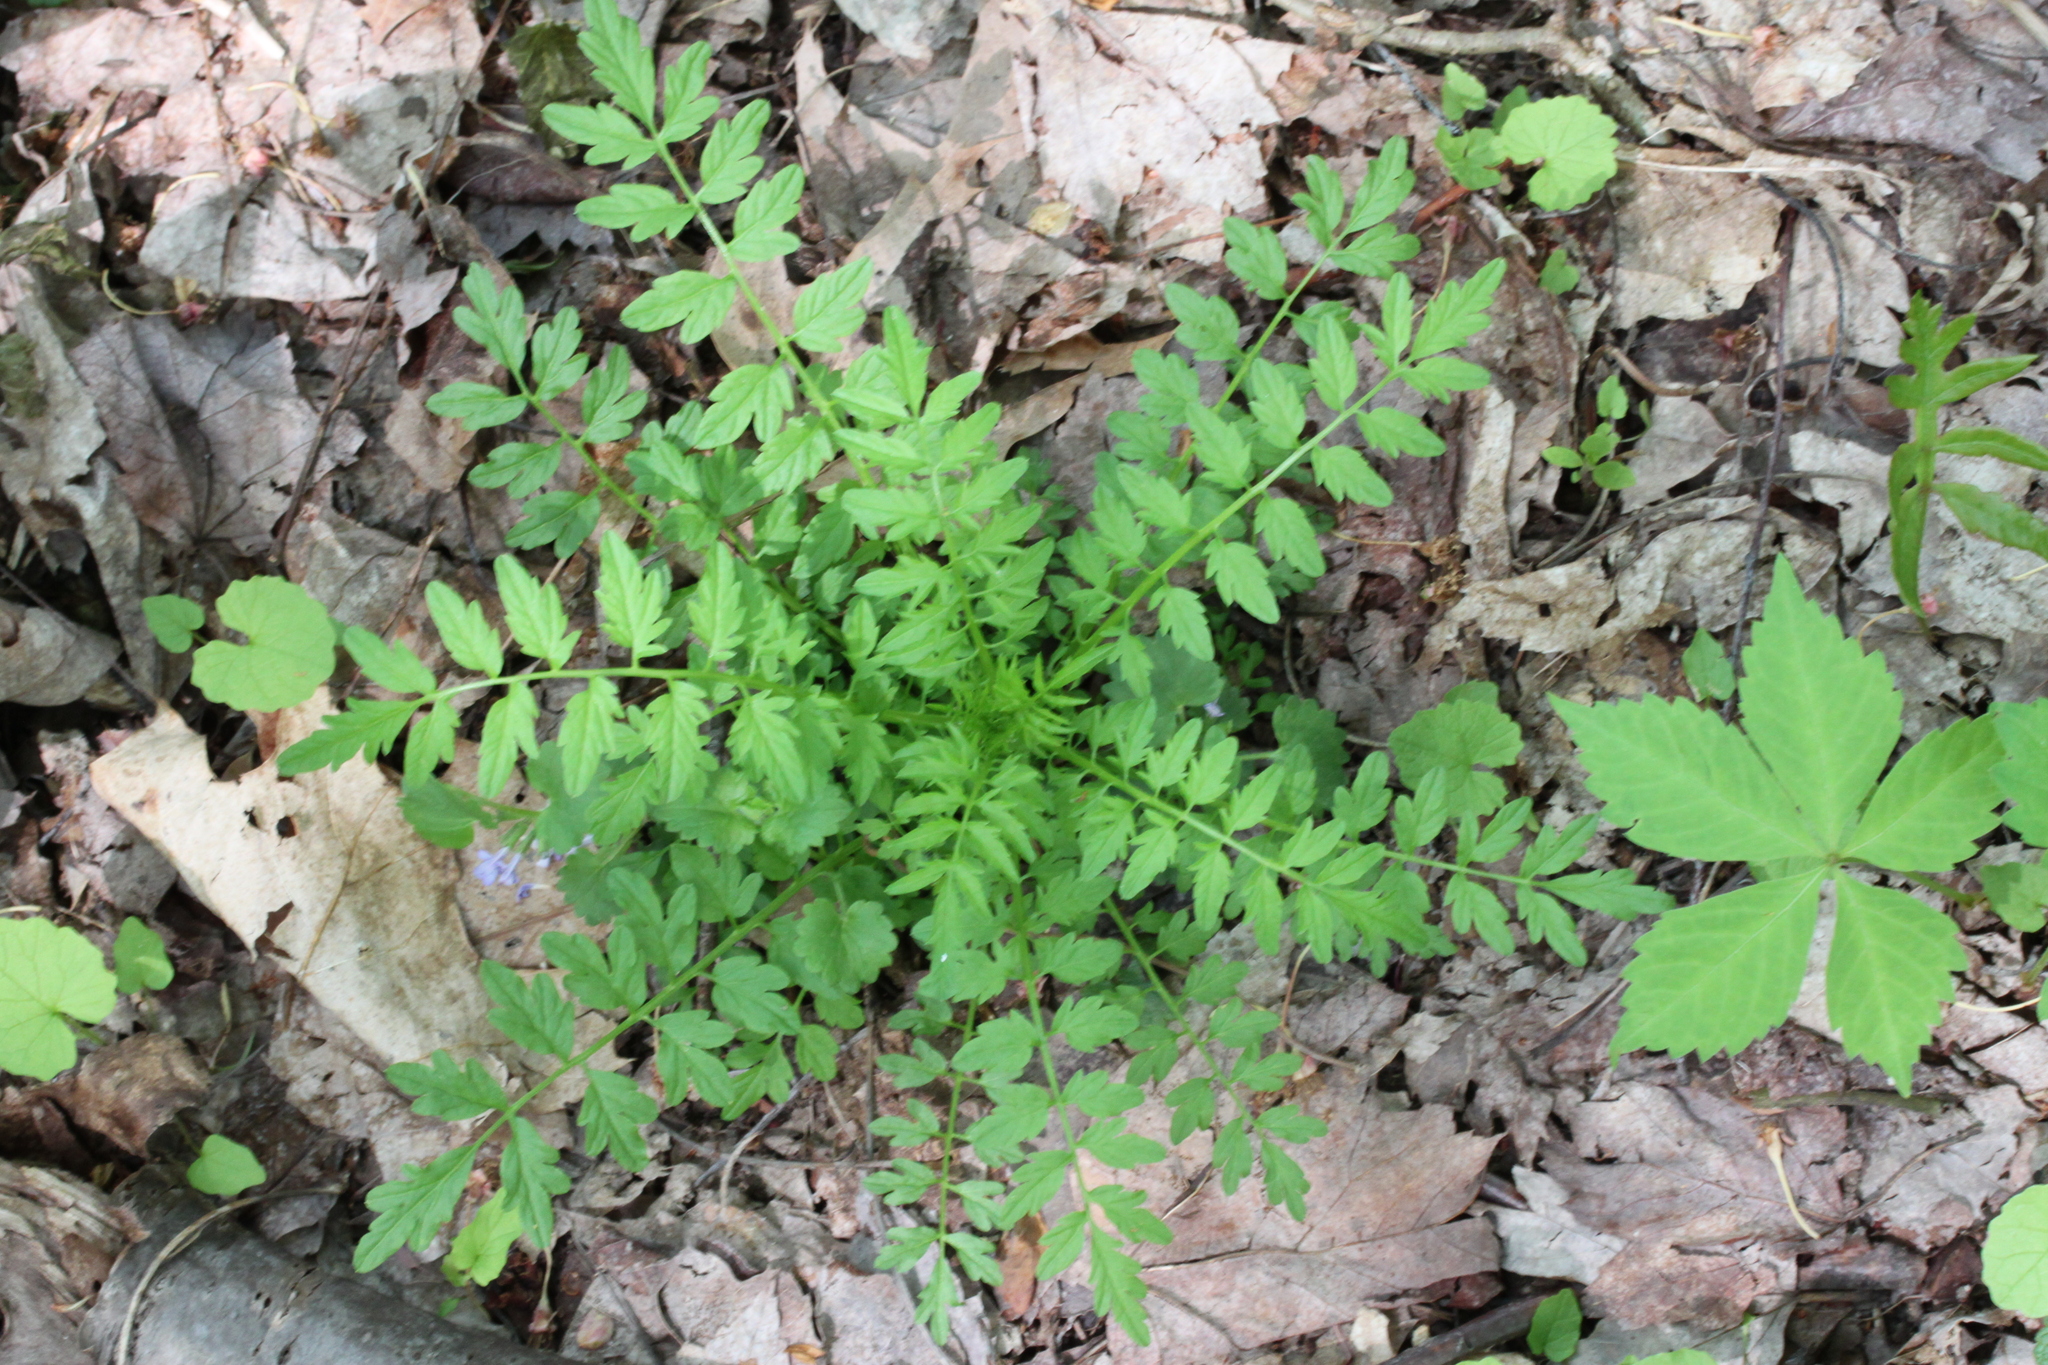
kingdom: Plantae
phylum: Tracheophyta
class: Magnoliopsida
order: Brassicales
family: Brassicaceae
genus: Cardamine
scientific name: Cardamine impatiens
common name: Narrow-leaved bitter-cress
